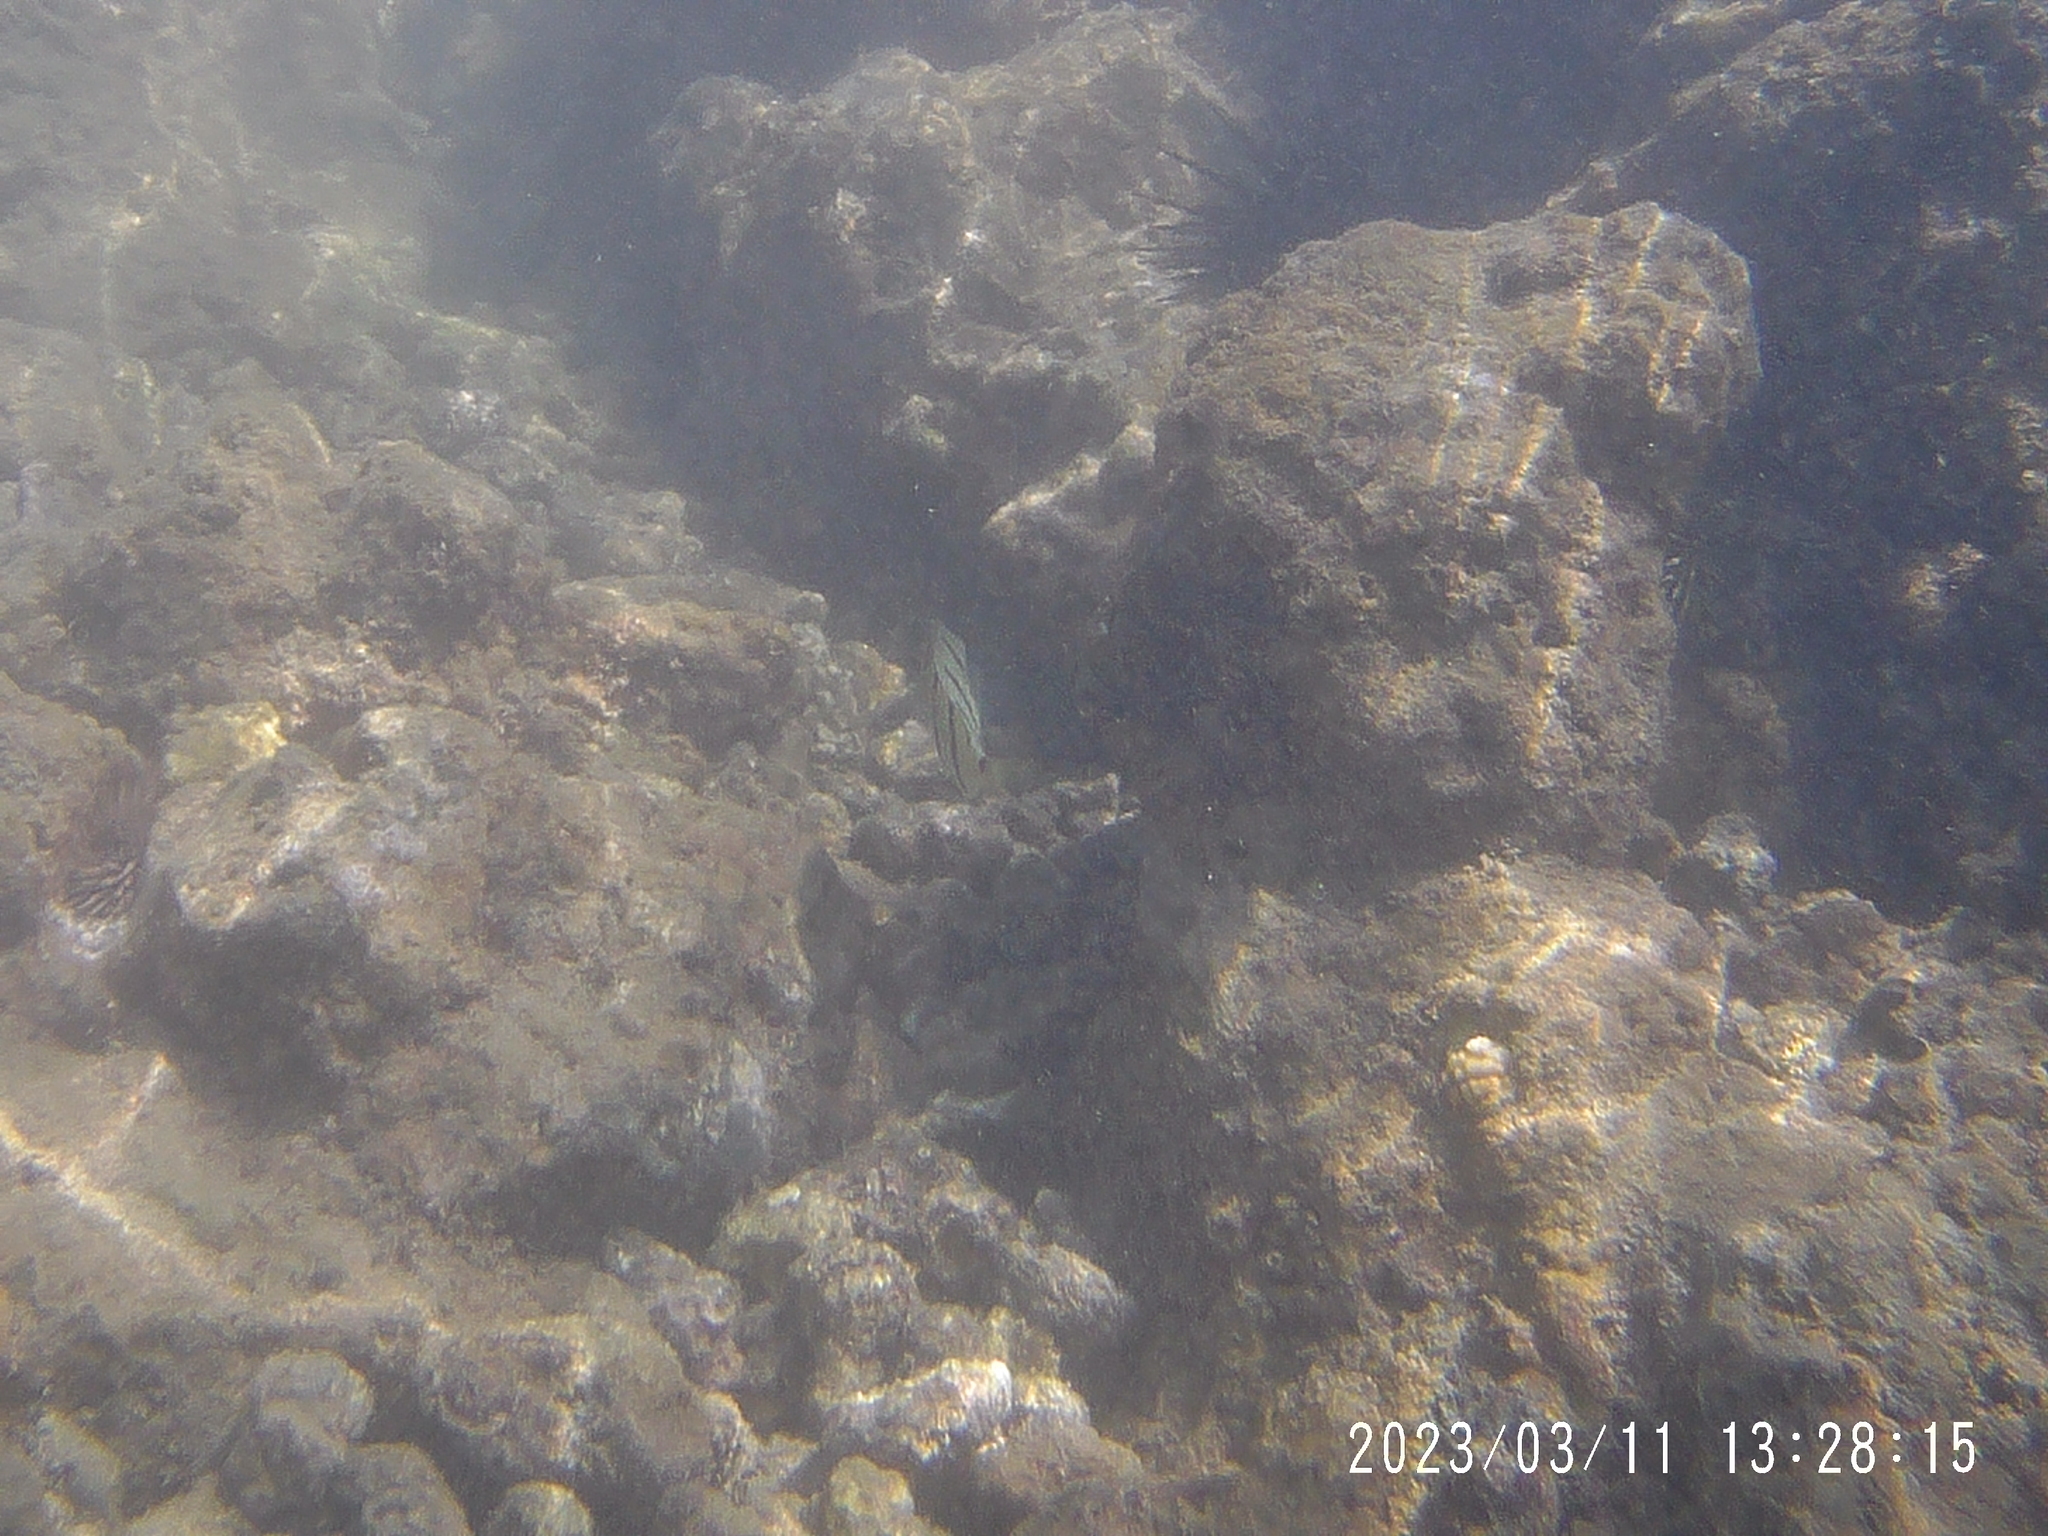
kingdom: Animalia
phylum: Chordata
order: Perciformes
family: Acanthuridae
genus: Acanthurus
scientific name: Acanthurus triostegus
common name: Convict surgeonfish
